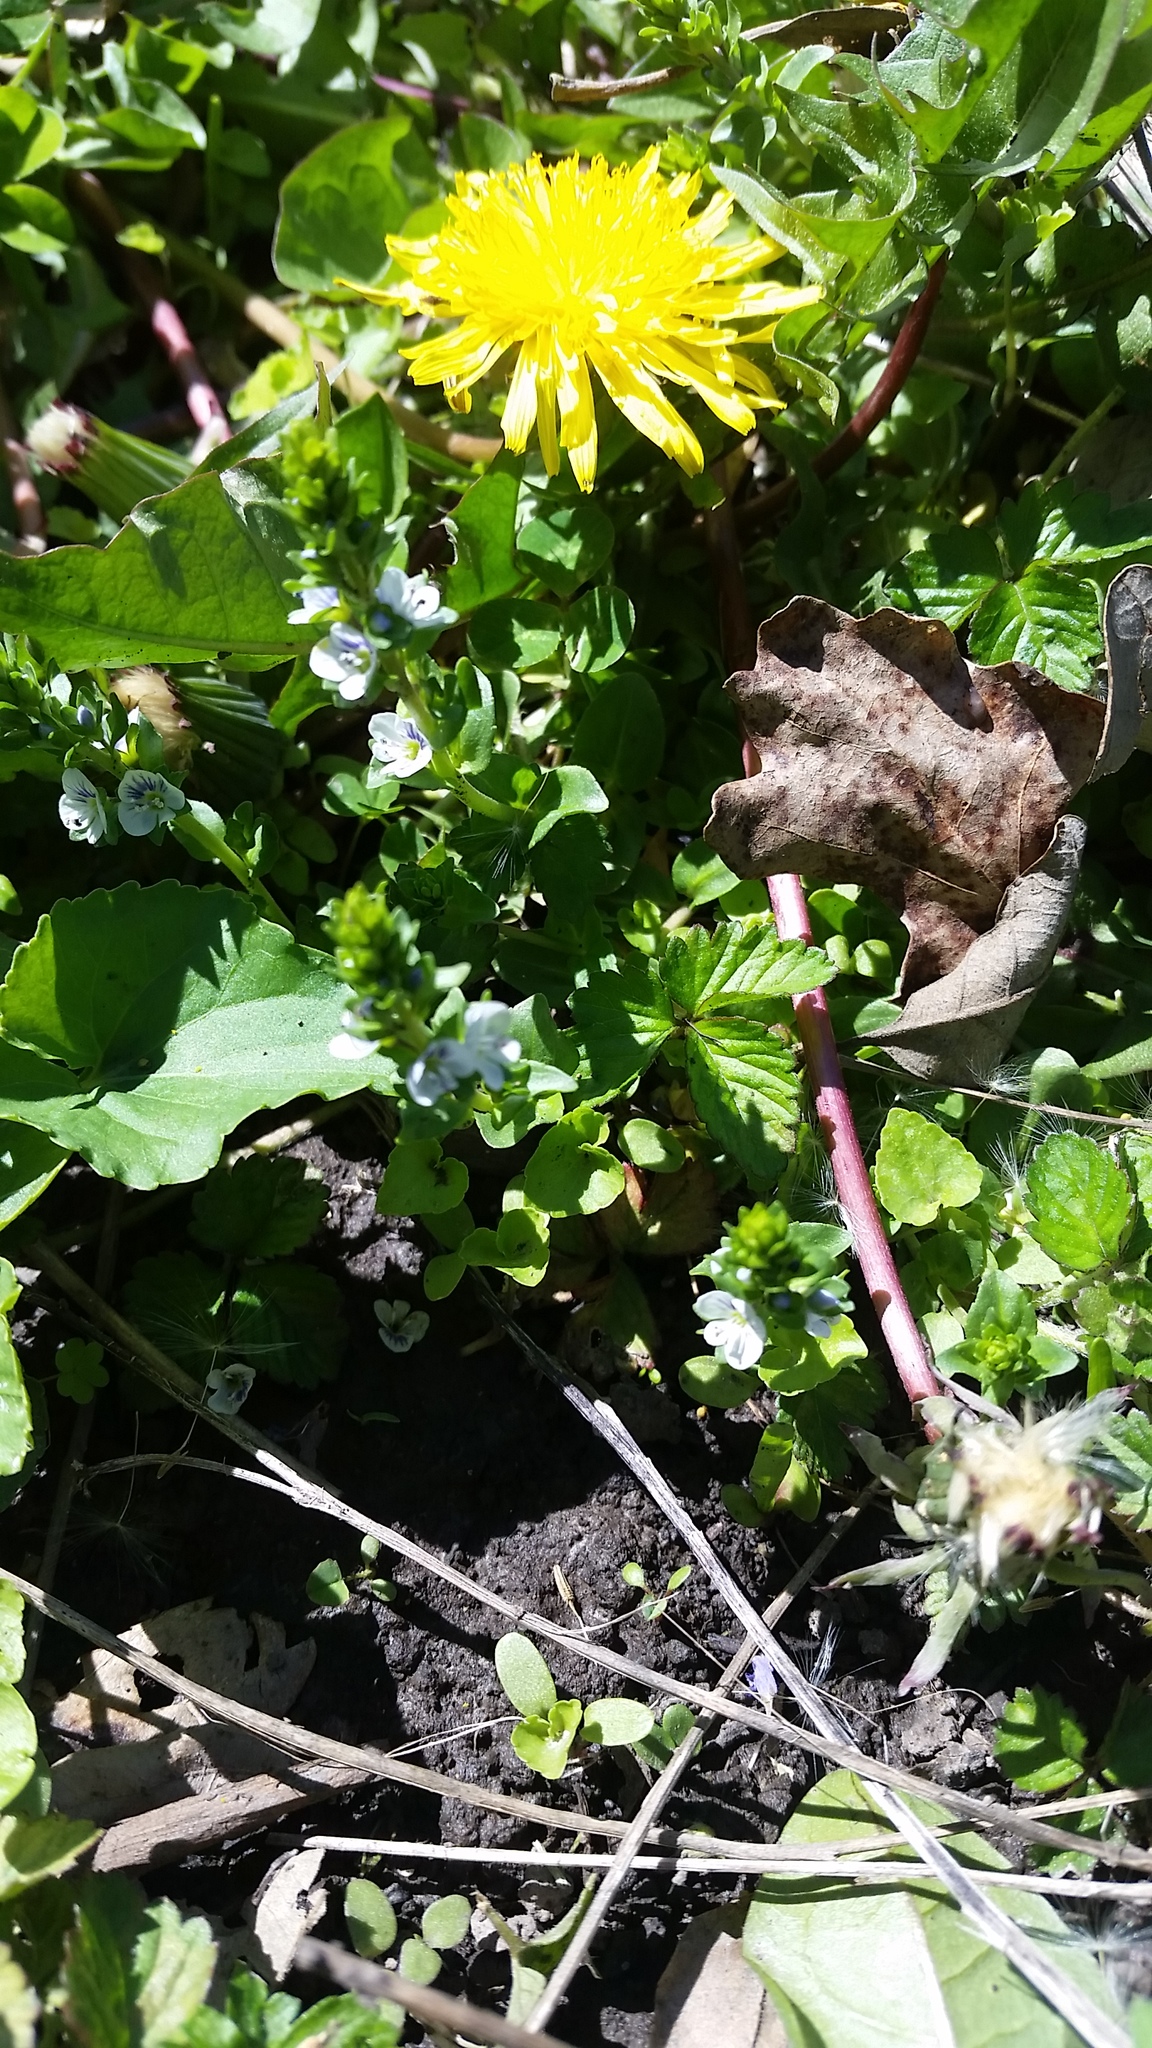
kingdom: Plantae
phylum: Tracheophyta
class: Magnoliopsida
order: Lamiales
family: Plantaginaceae
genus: Veronica
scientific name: Veronica serpyllifolia
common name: Thyme-leaved speedwell
